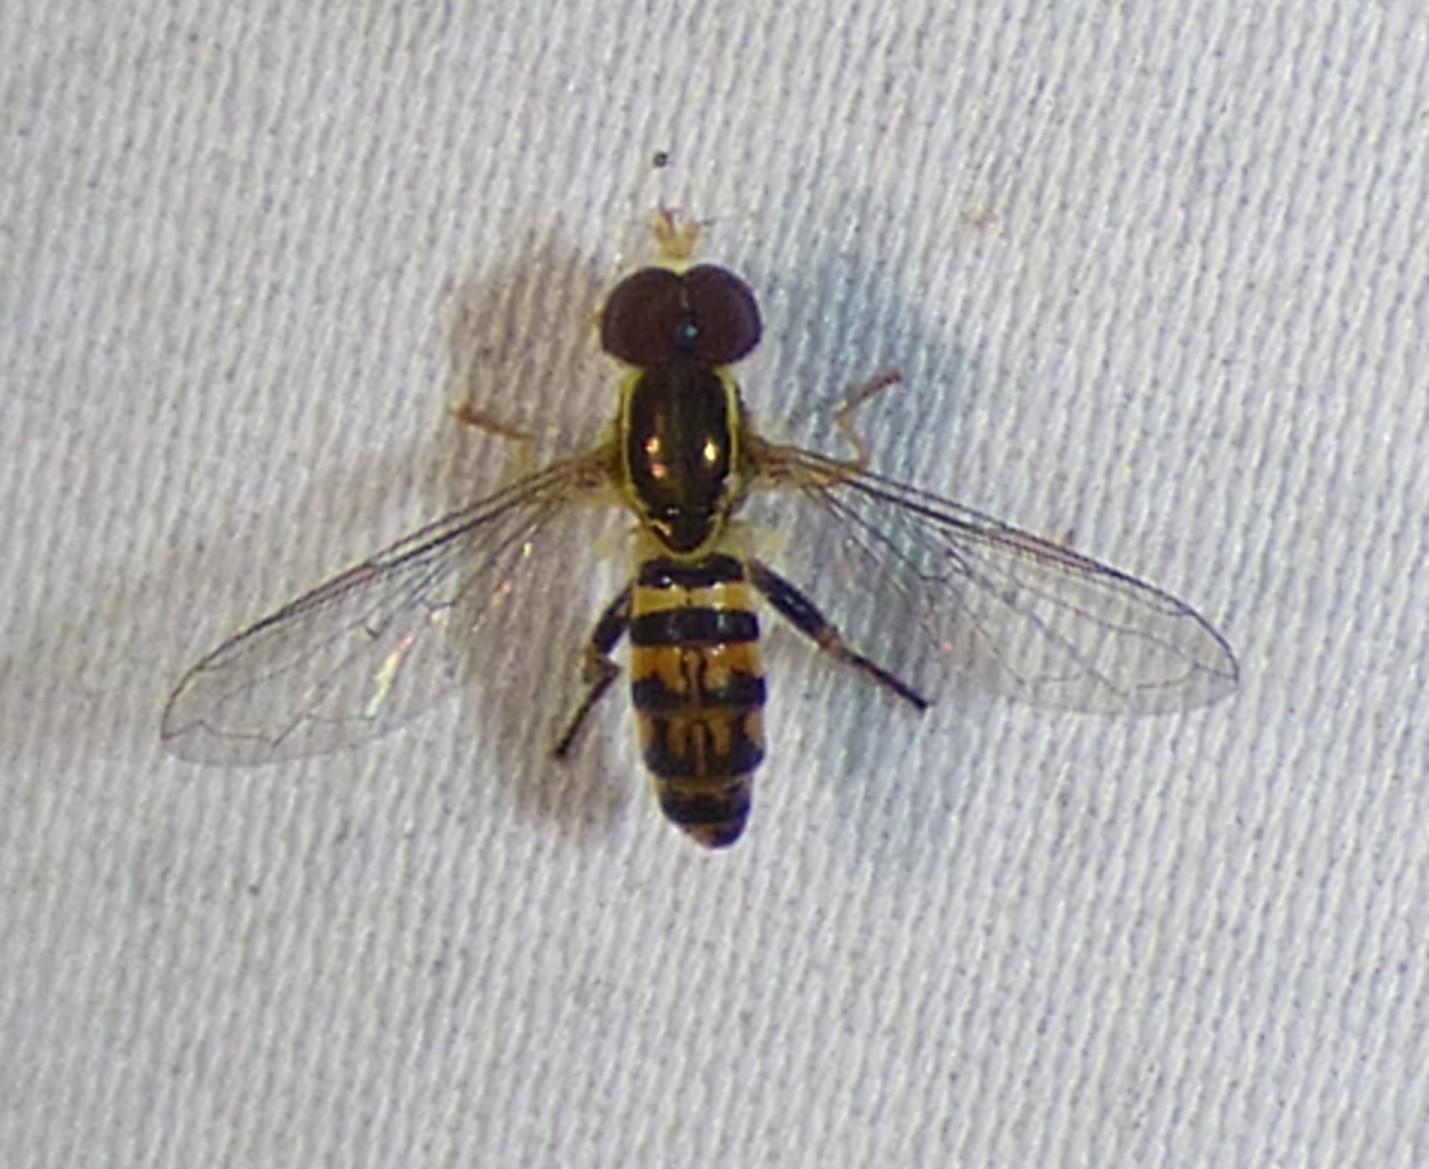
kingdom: Animalia
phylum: Arthropoda
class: Insecta
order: Diptera
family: Syrphidae
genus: Toxomerus
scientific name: Toxomerus geminatus
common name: Eastern calligrapher
